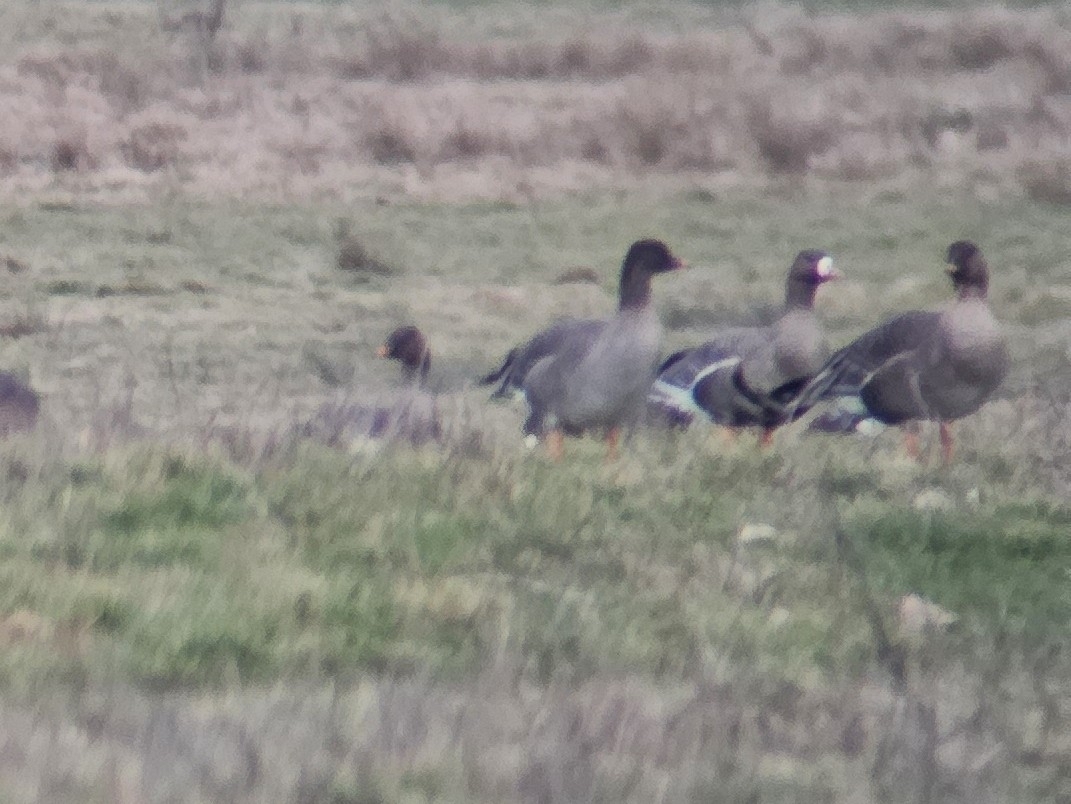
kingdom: Animalia
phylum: Chordata
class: Aves
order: Anseriformes
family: Anatidae
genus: Anser
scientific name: Anser serrirostris
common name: Tundra bean goose
